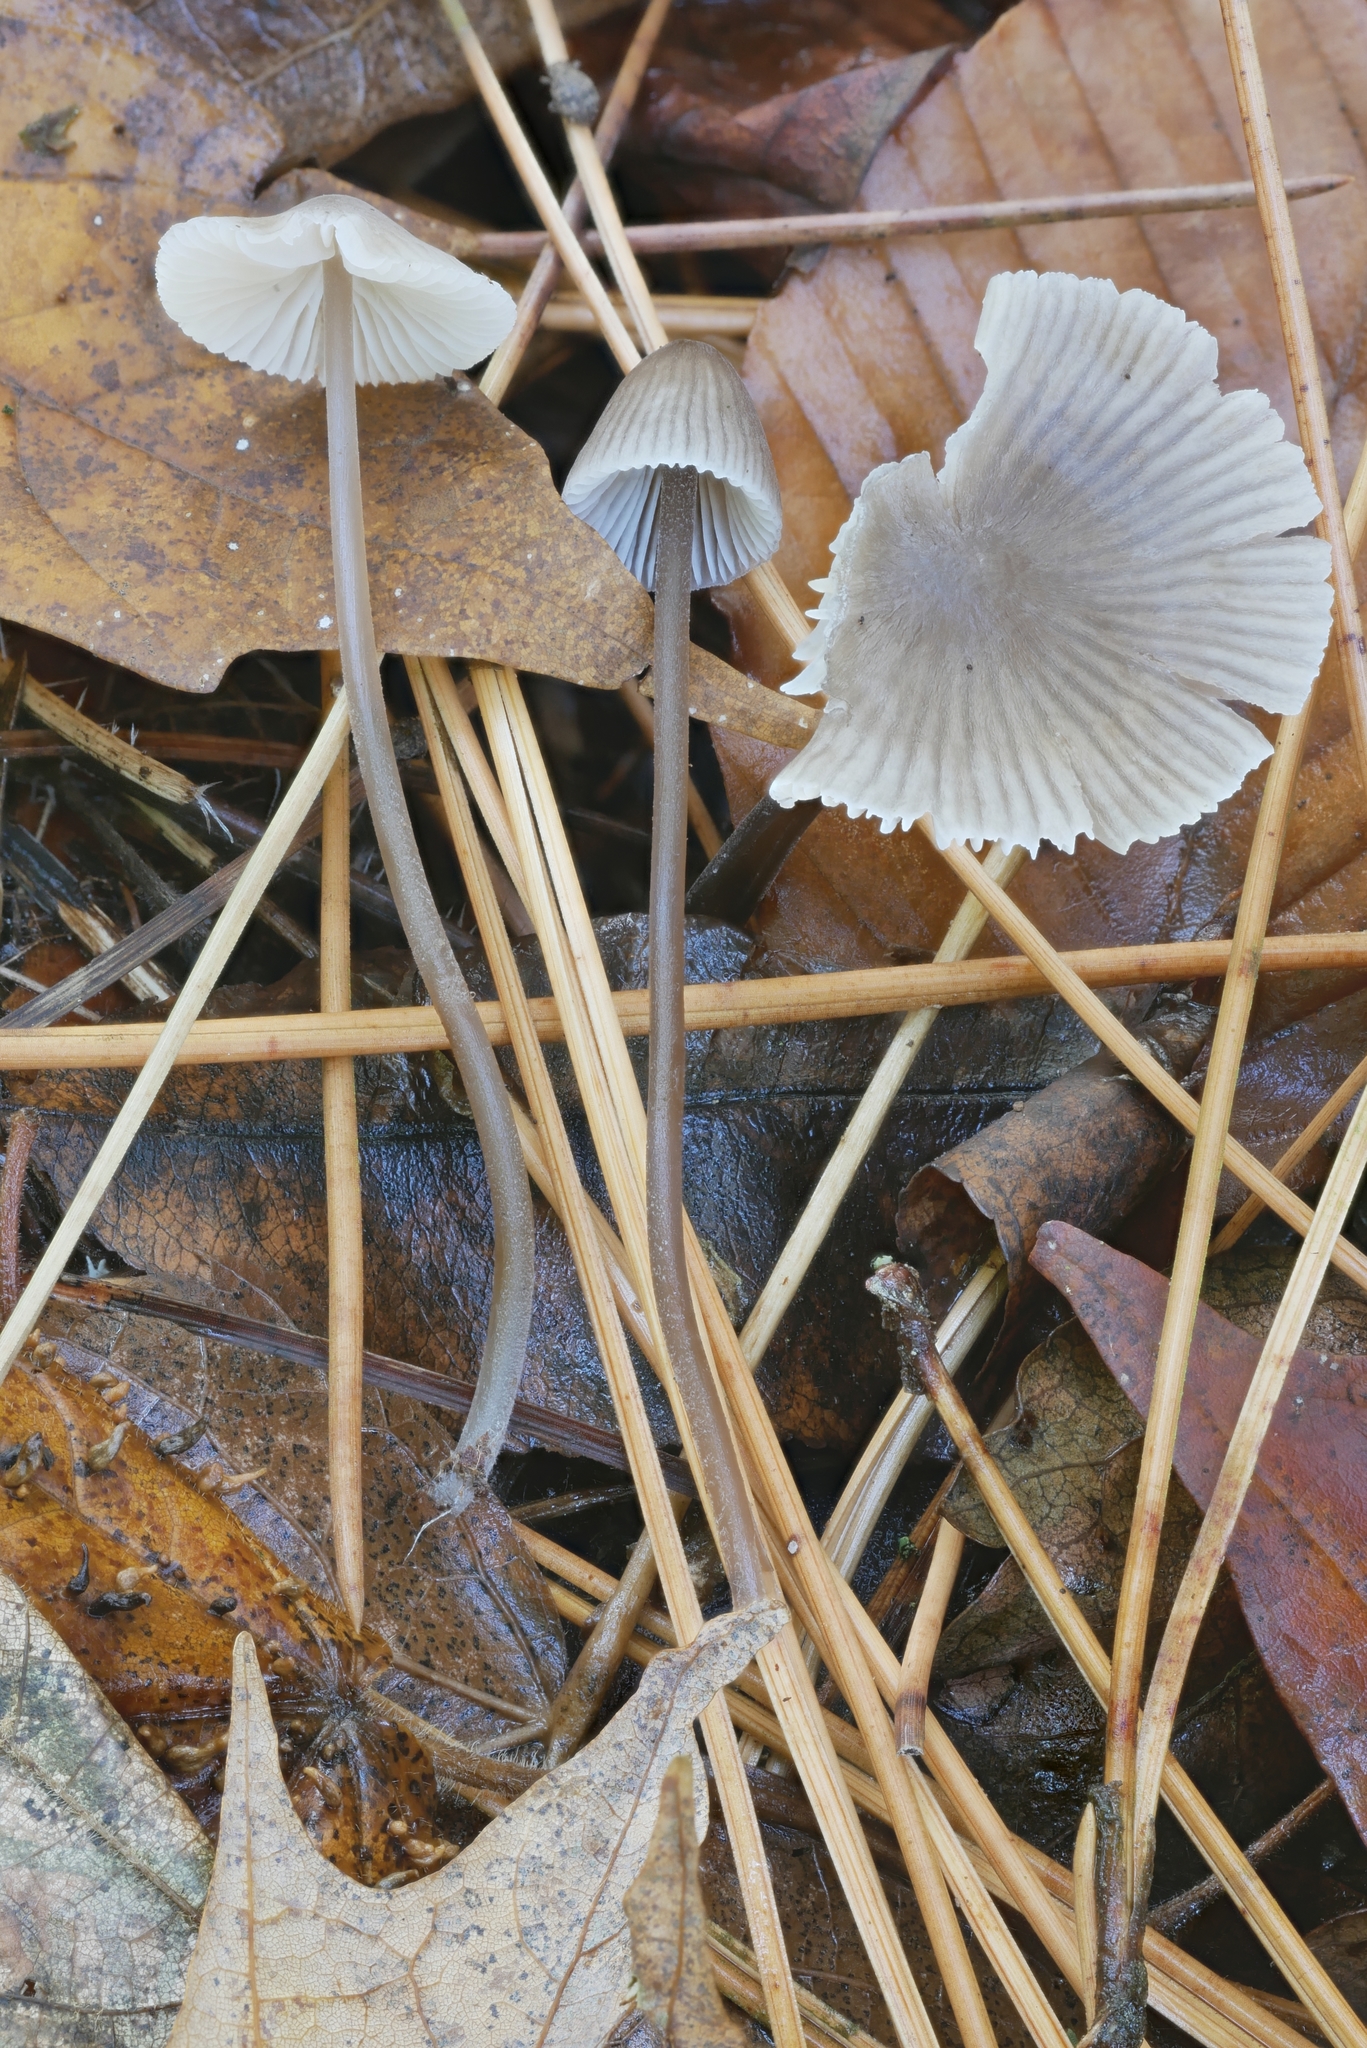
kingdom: Fungi
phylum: Basidiomycota
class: Agaricomycetes
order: Agaricales
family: Mycenaceae
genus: Mycena
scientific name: Mycena leptocephala
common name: Nitrous bonnet
